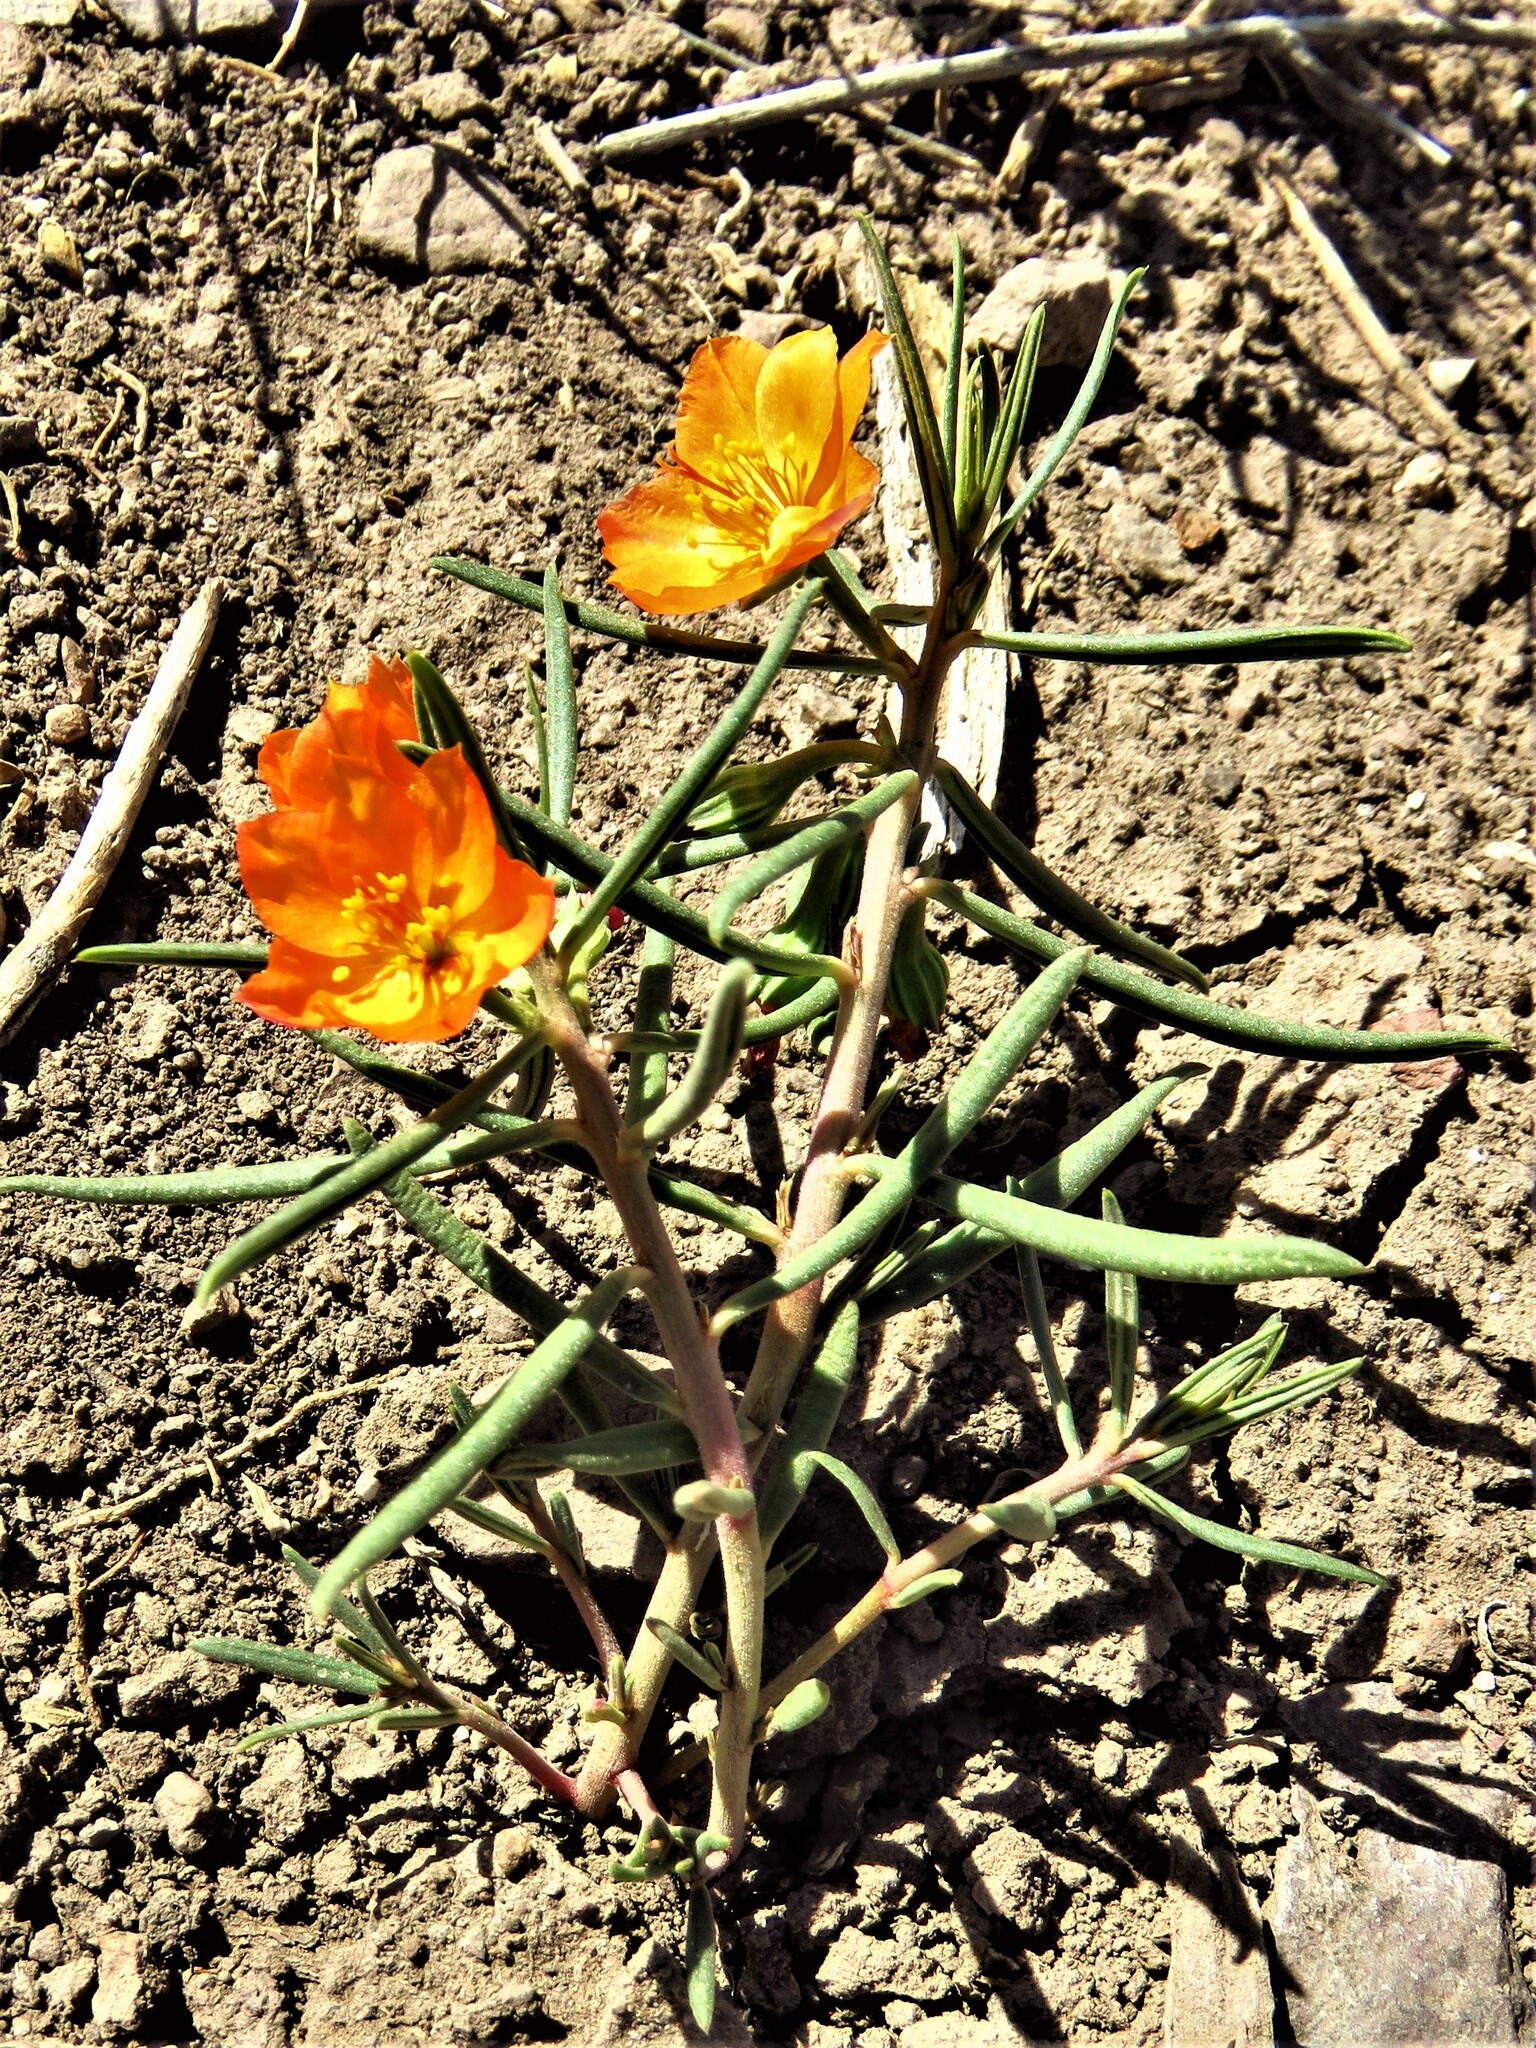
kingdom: Plantae
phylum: Tracheophyta
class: Magnoliopsida
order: Caryophyllales
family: Montiaceae
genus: Phemeranthus
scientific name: Phemeranthus aurantiacus
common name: Orange fameflower
